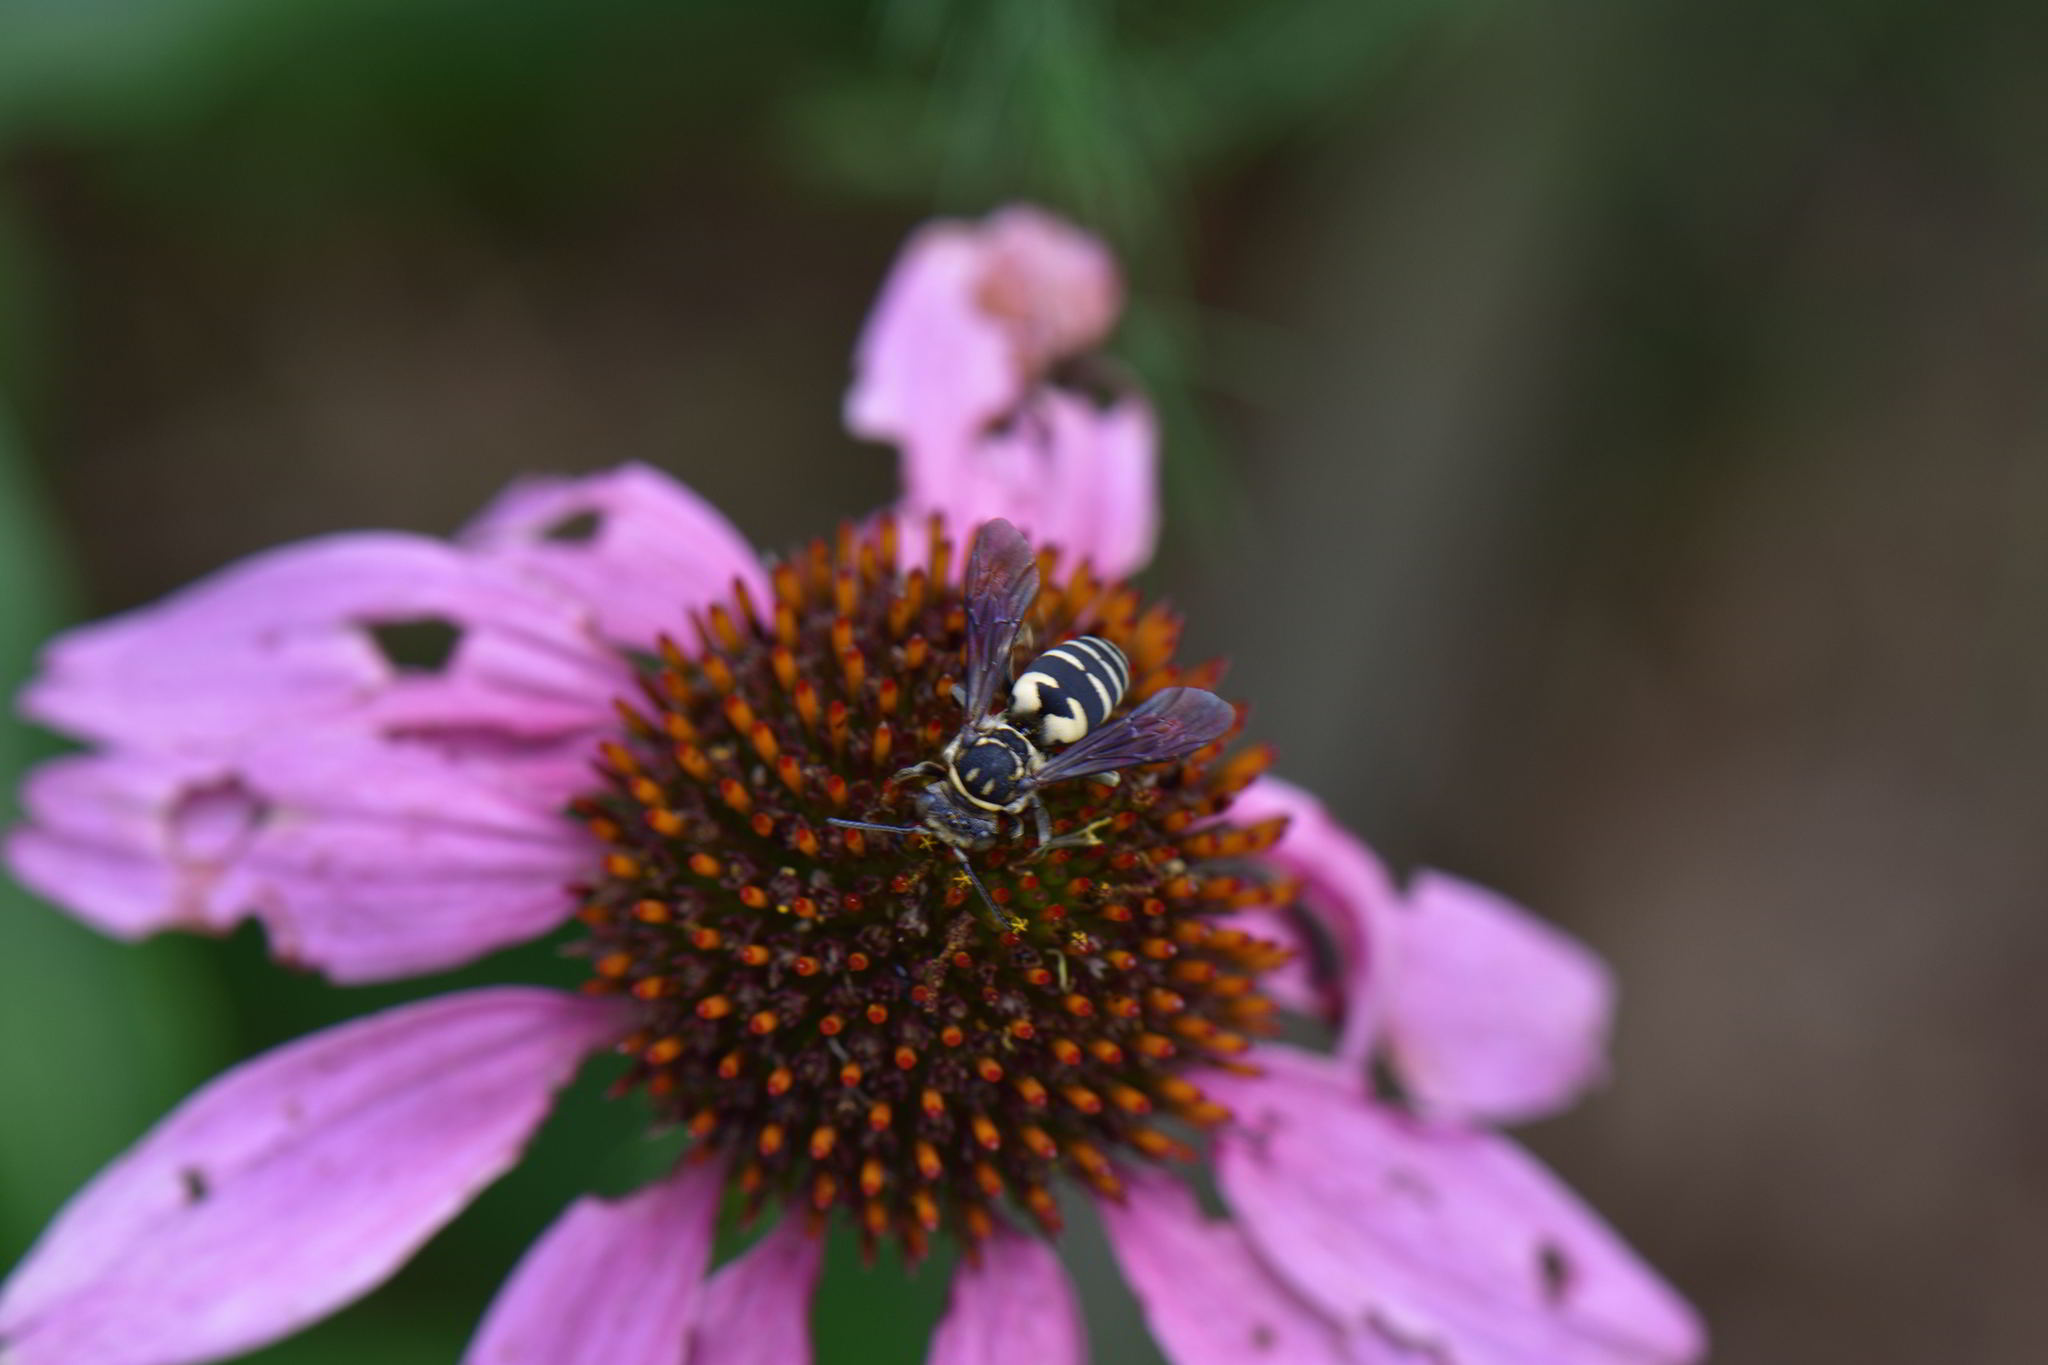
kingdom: Animalia
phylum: Arthropoda
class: Insecta
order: Hymenoptera
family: Apidae
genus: Triepeolus
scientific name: Triepeolus lunatus
